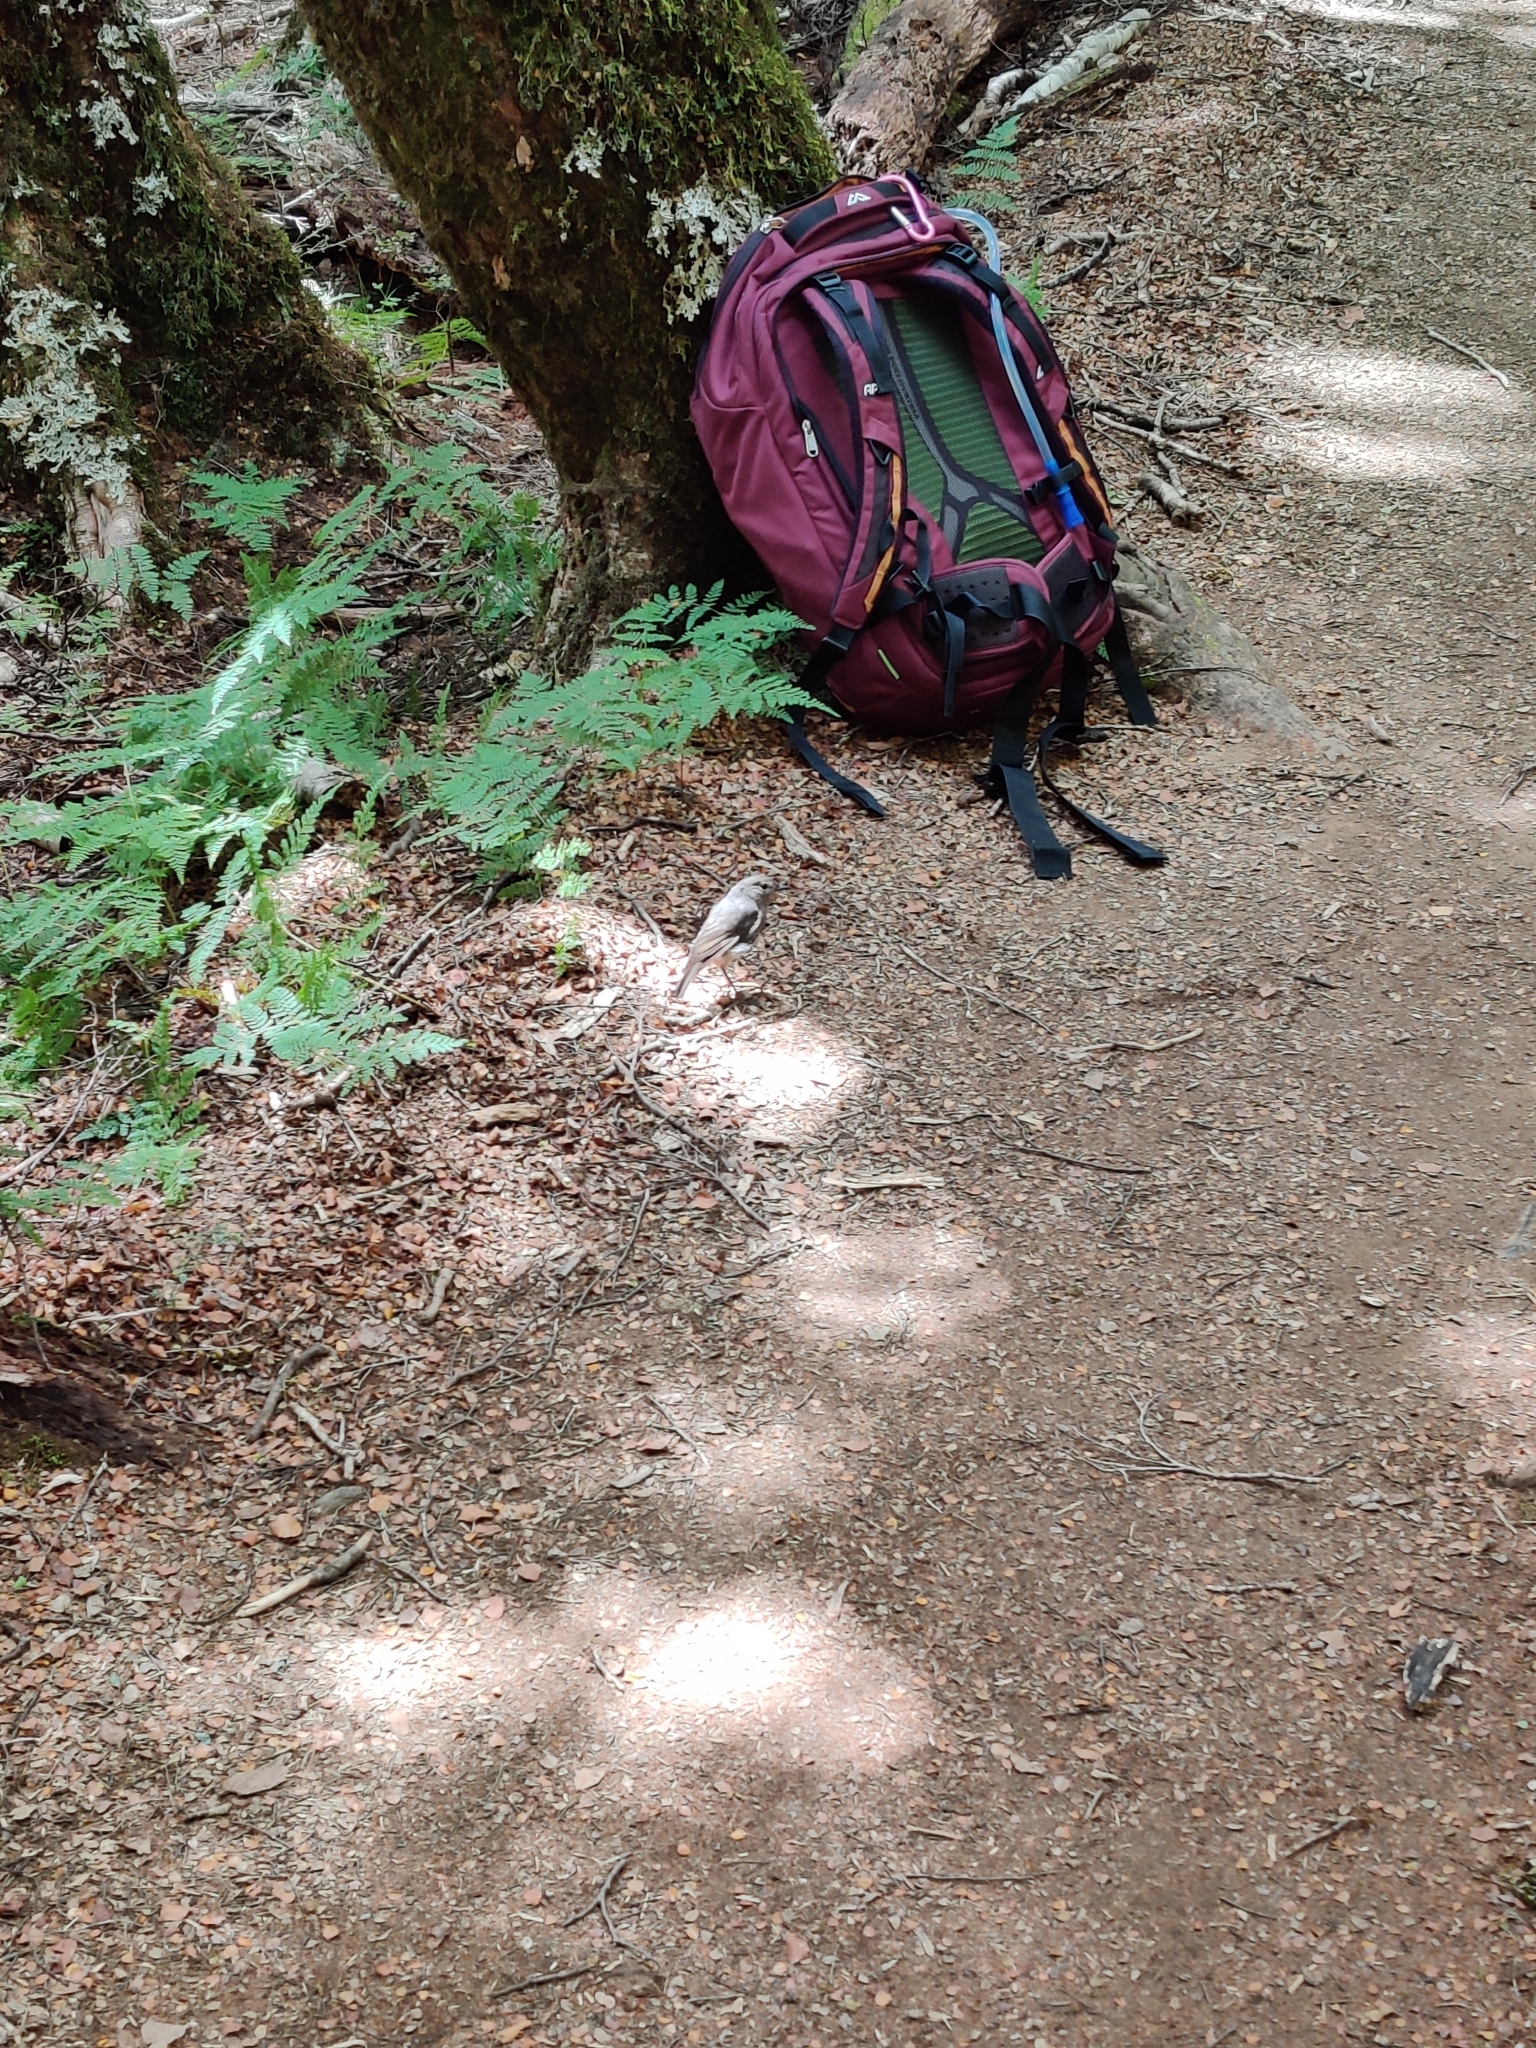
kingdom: Animalia
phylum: Chordata
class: Aves
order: Passeriformes
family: Petroicidae
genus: Petroica
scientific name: Petroica australis
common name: New zealand robin
